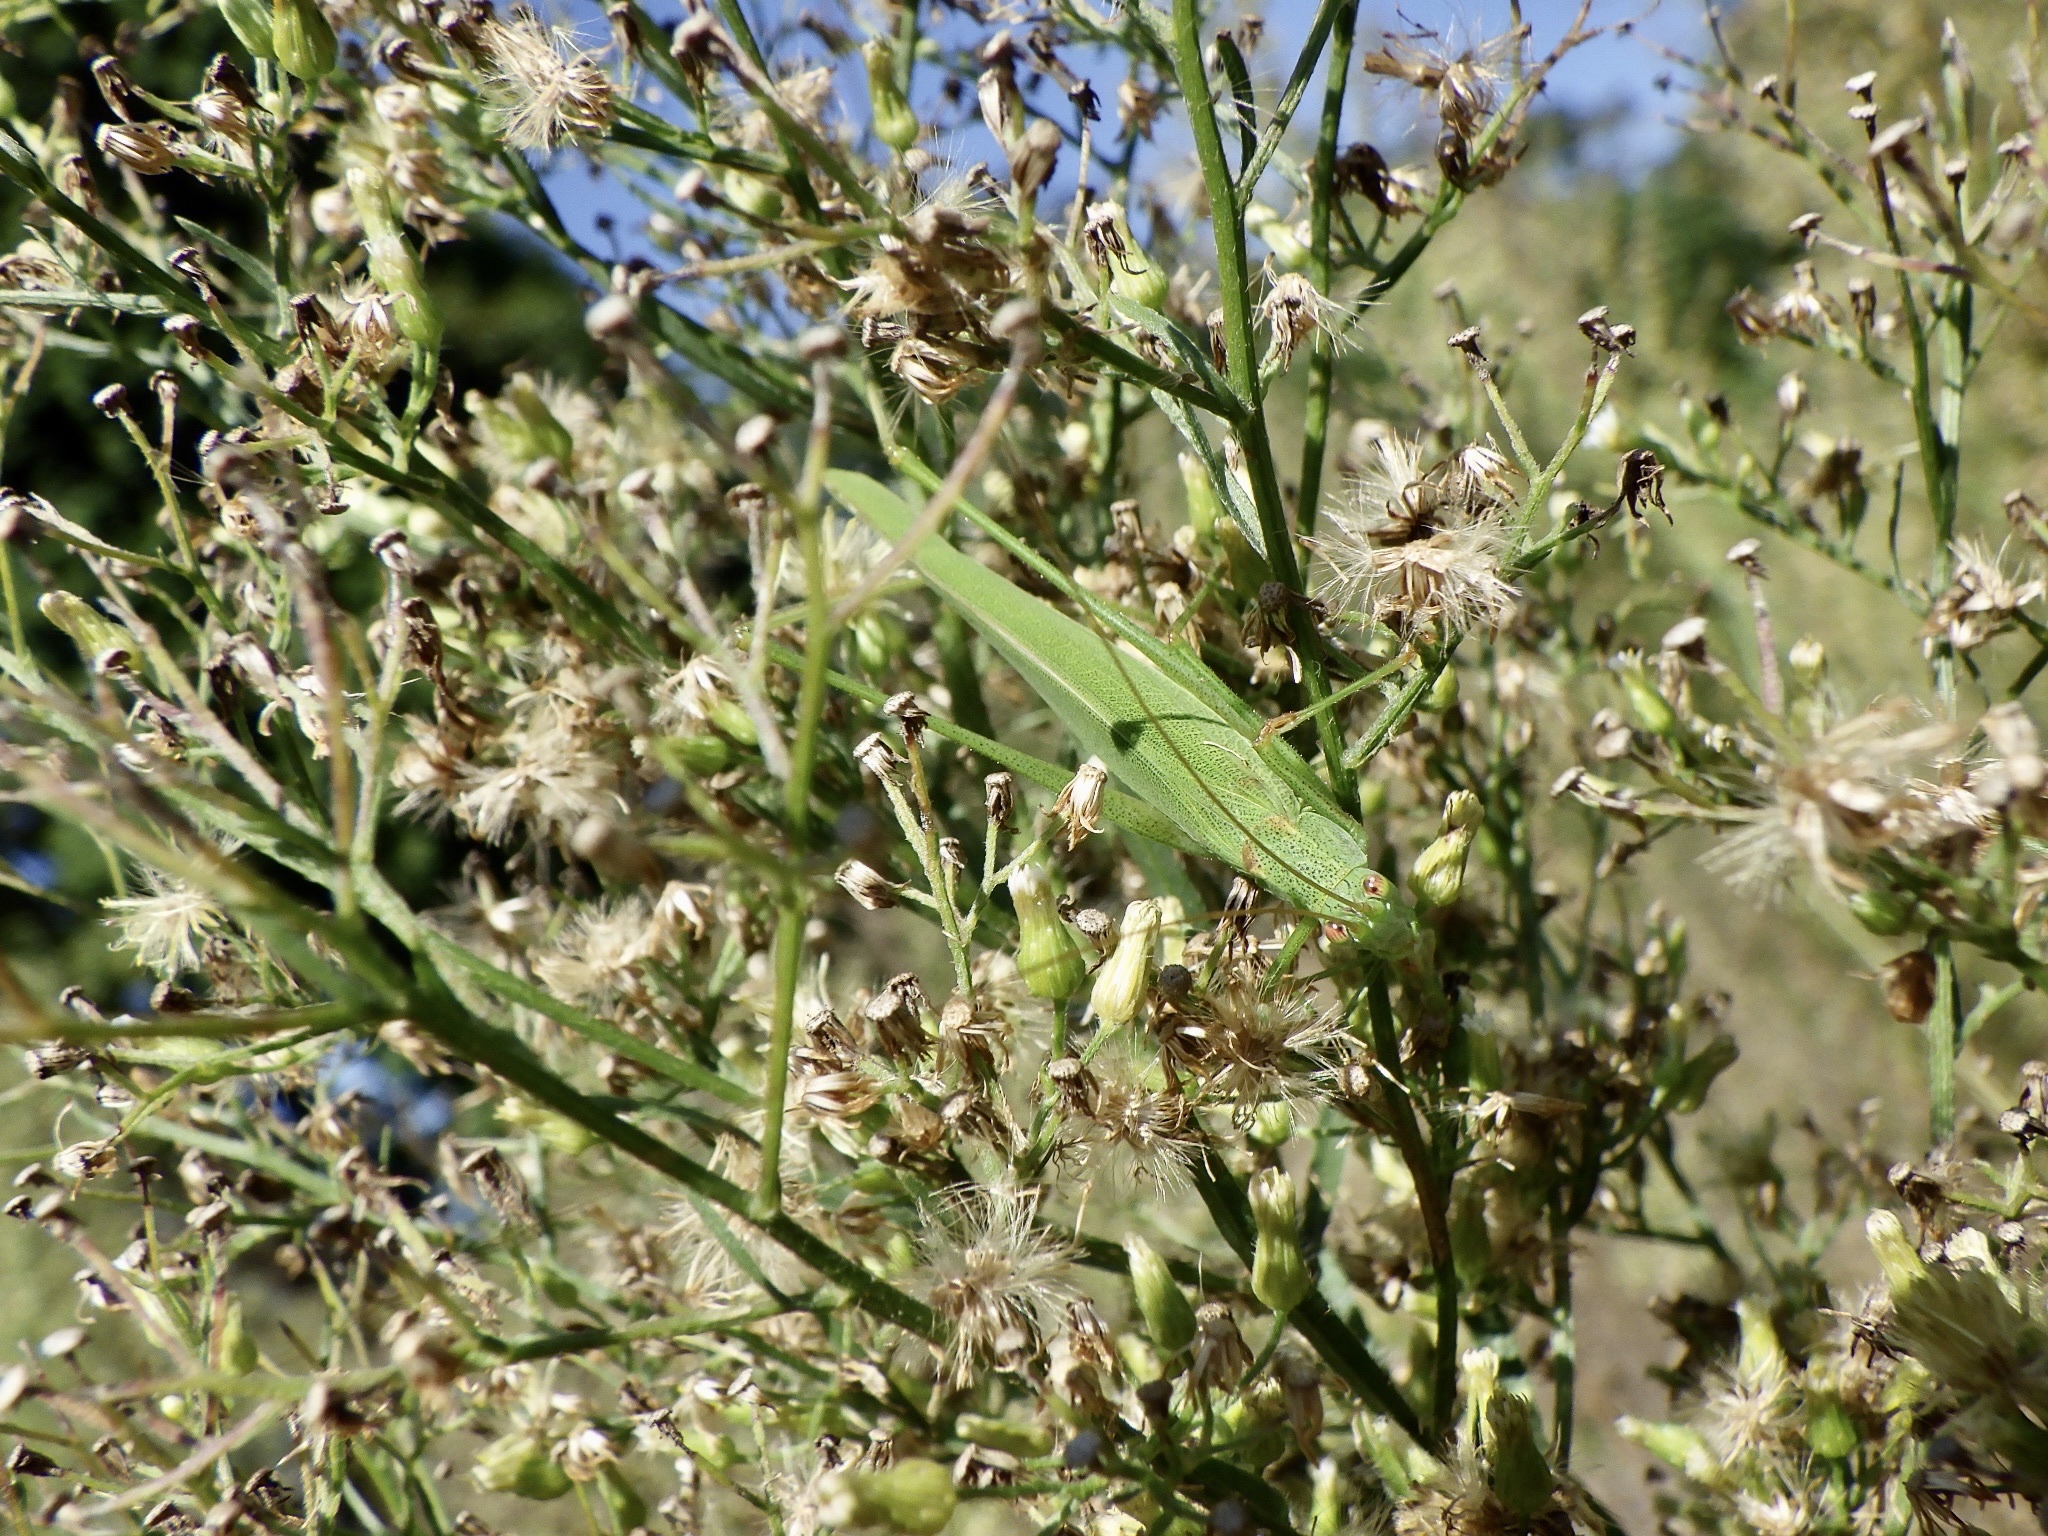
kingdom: Animalia
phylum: Arthropoda
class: Insecta
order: Orthoptera
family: Tettigoniidae
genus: Phaneroptera
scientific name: Phaneroptera falcata
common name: Sickle-bearing bush-cricket
